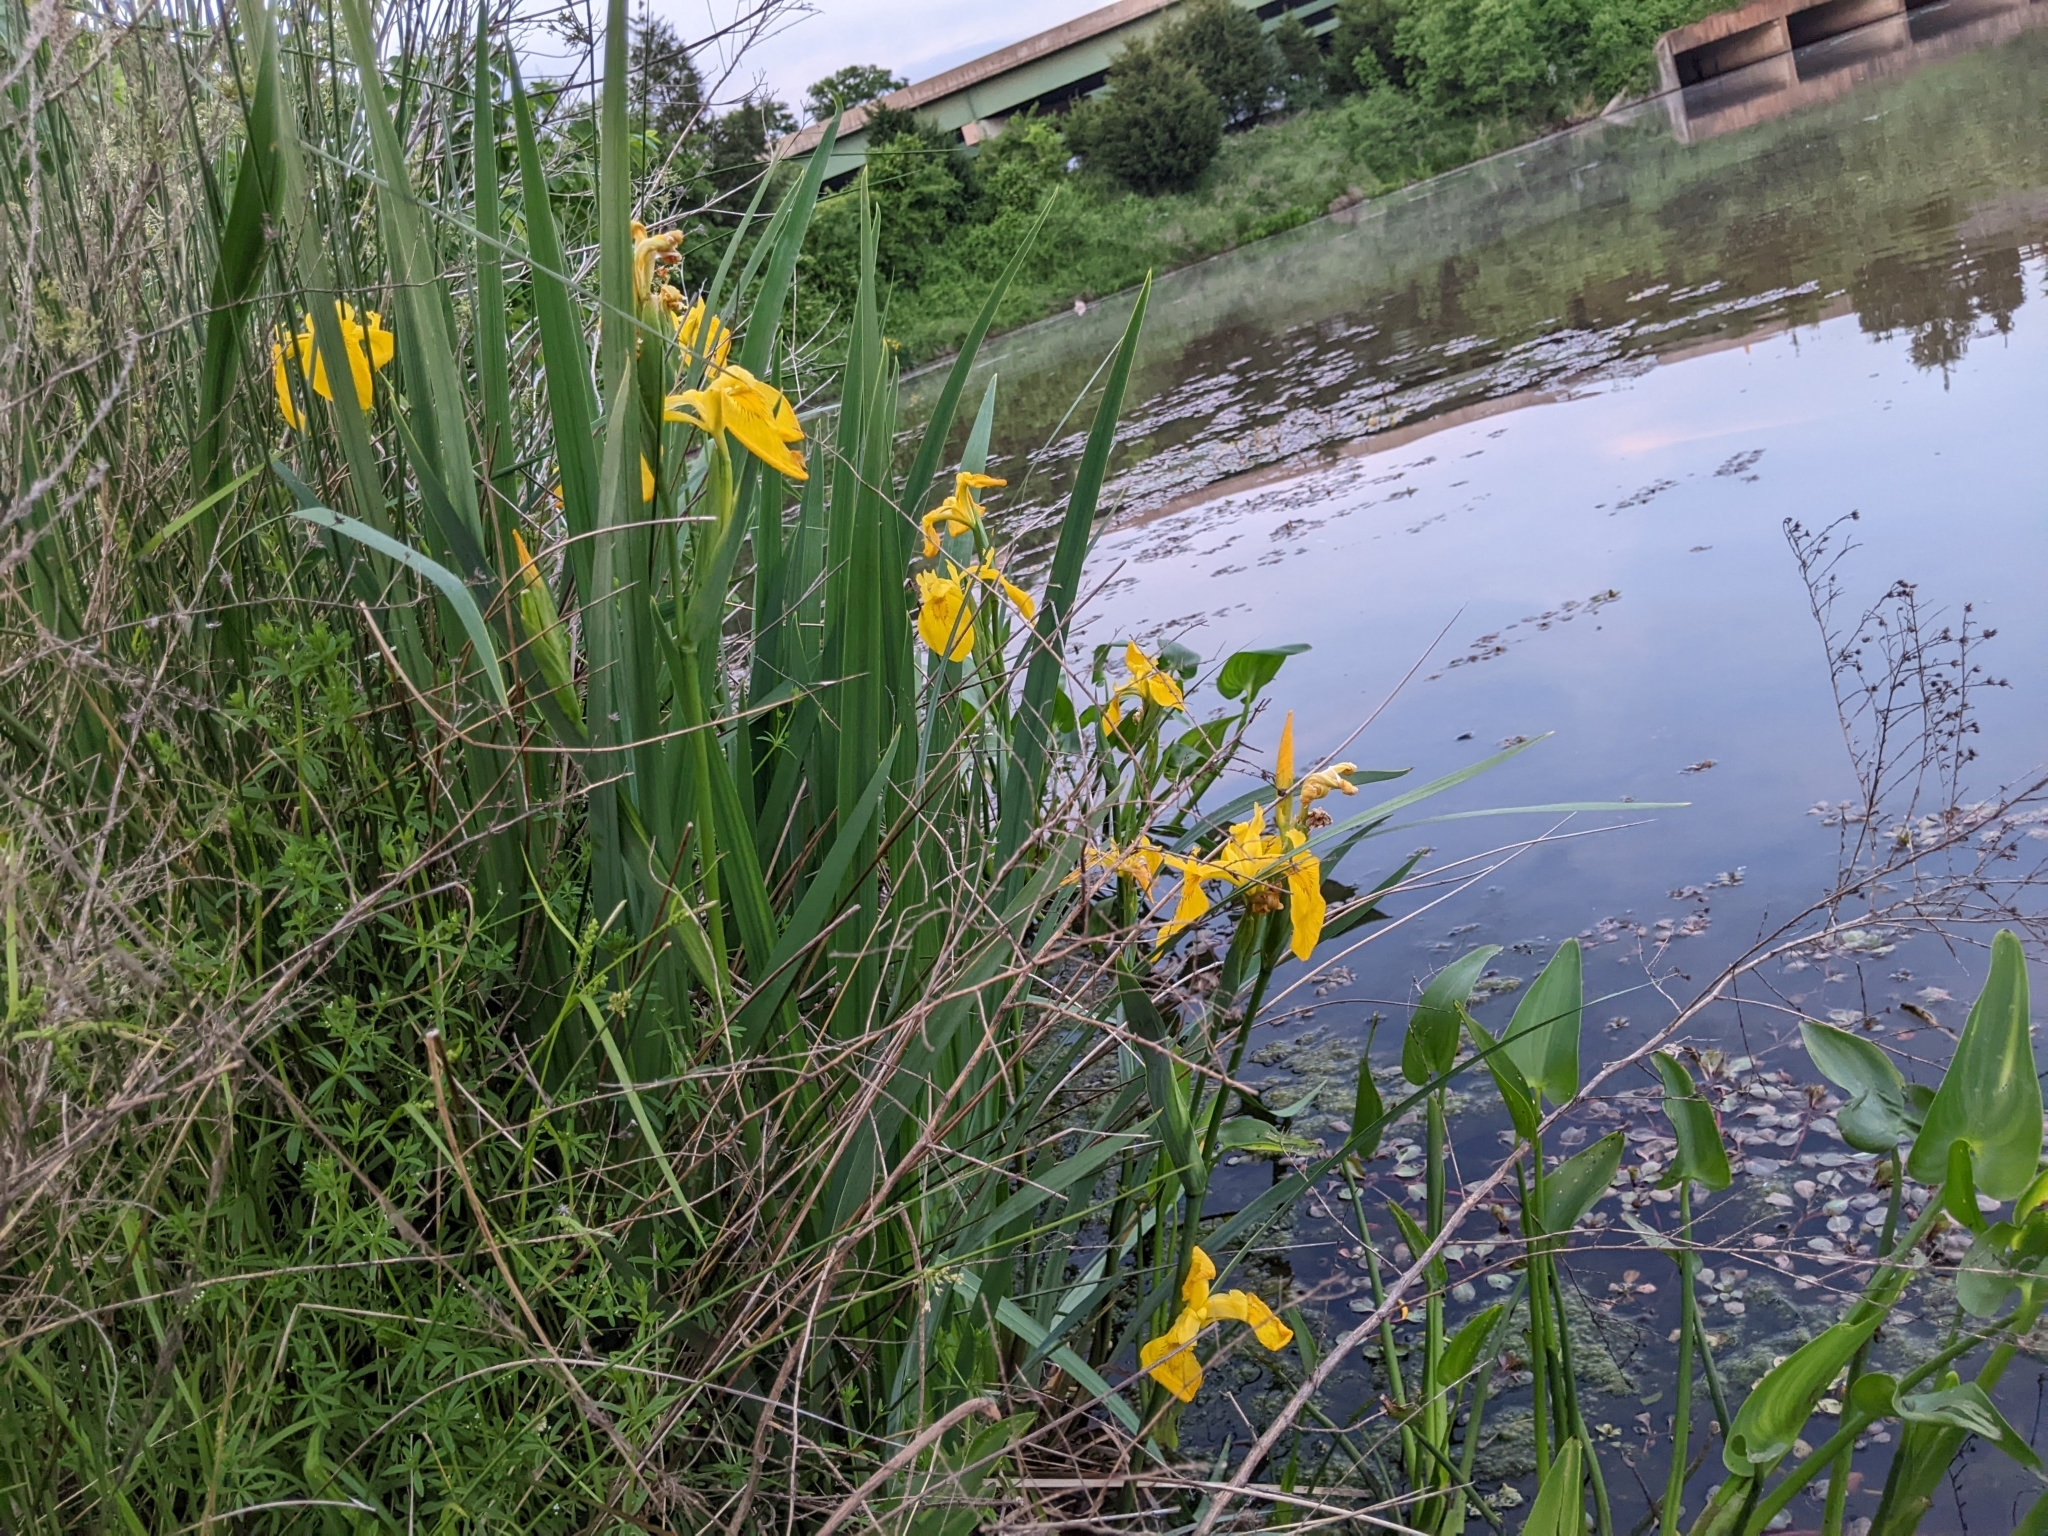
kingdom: Plantae
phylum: Tracheophyta
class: Liliopsida
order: Asparagales
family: Iridaceae
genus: Iris
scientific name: Iris pseudacorus
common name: Yellow flag
